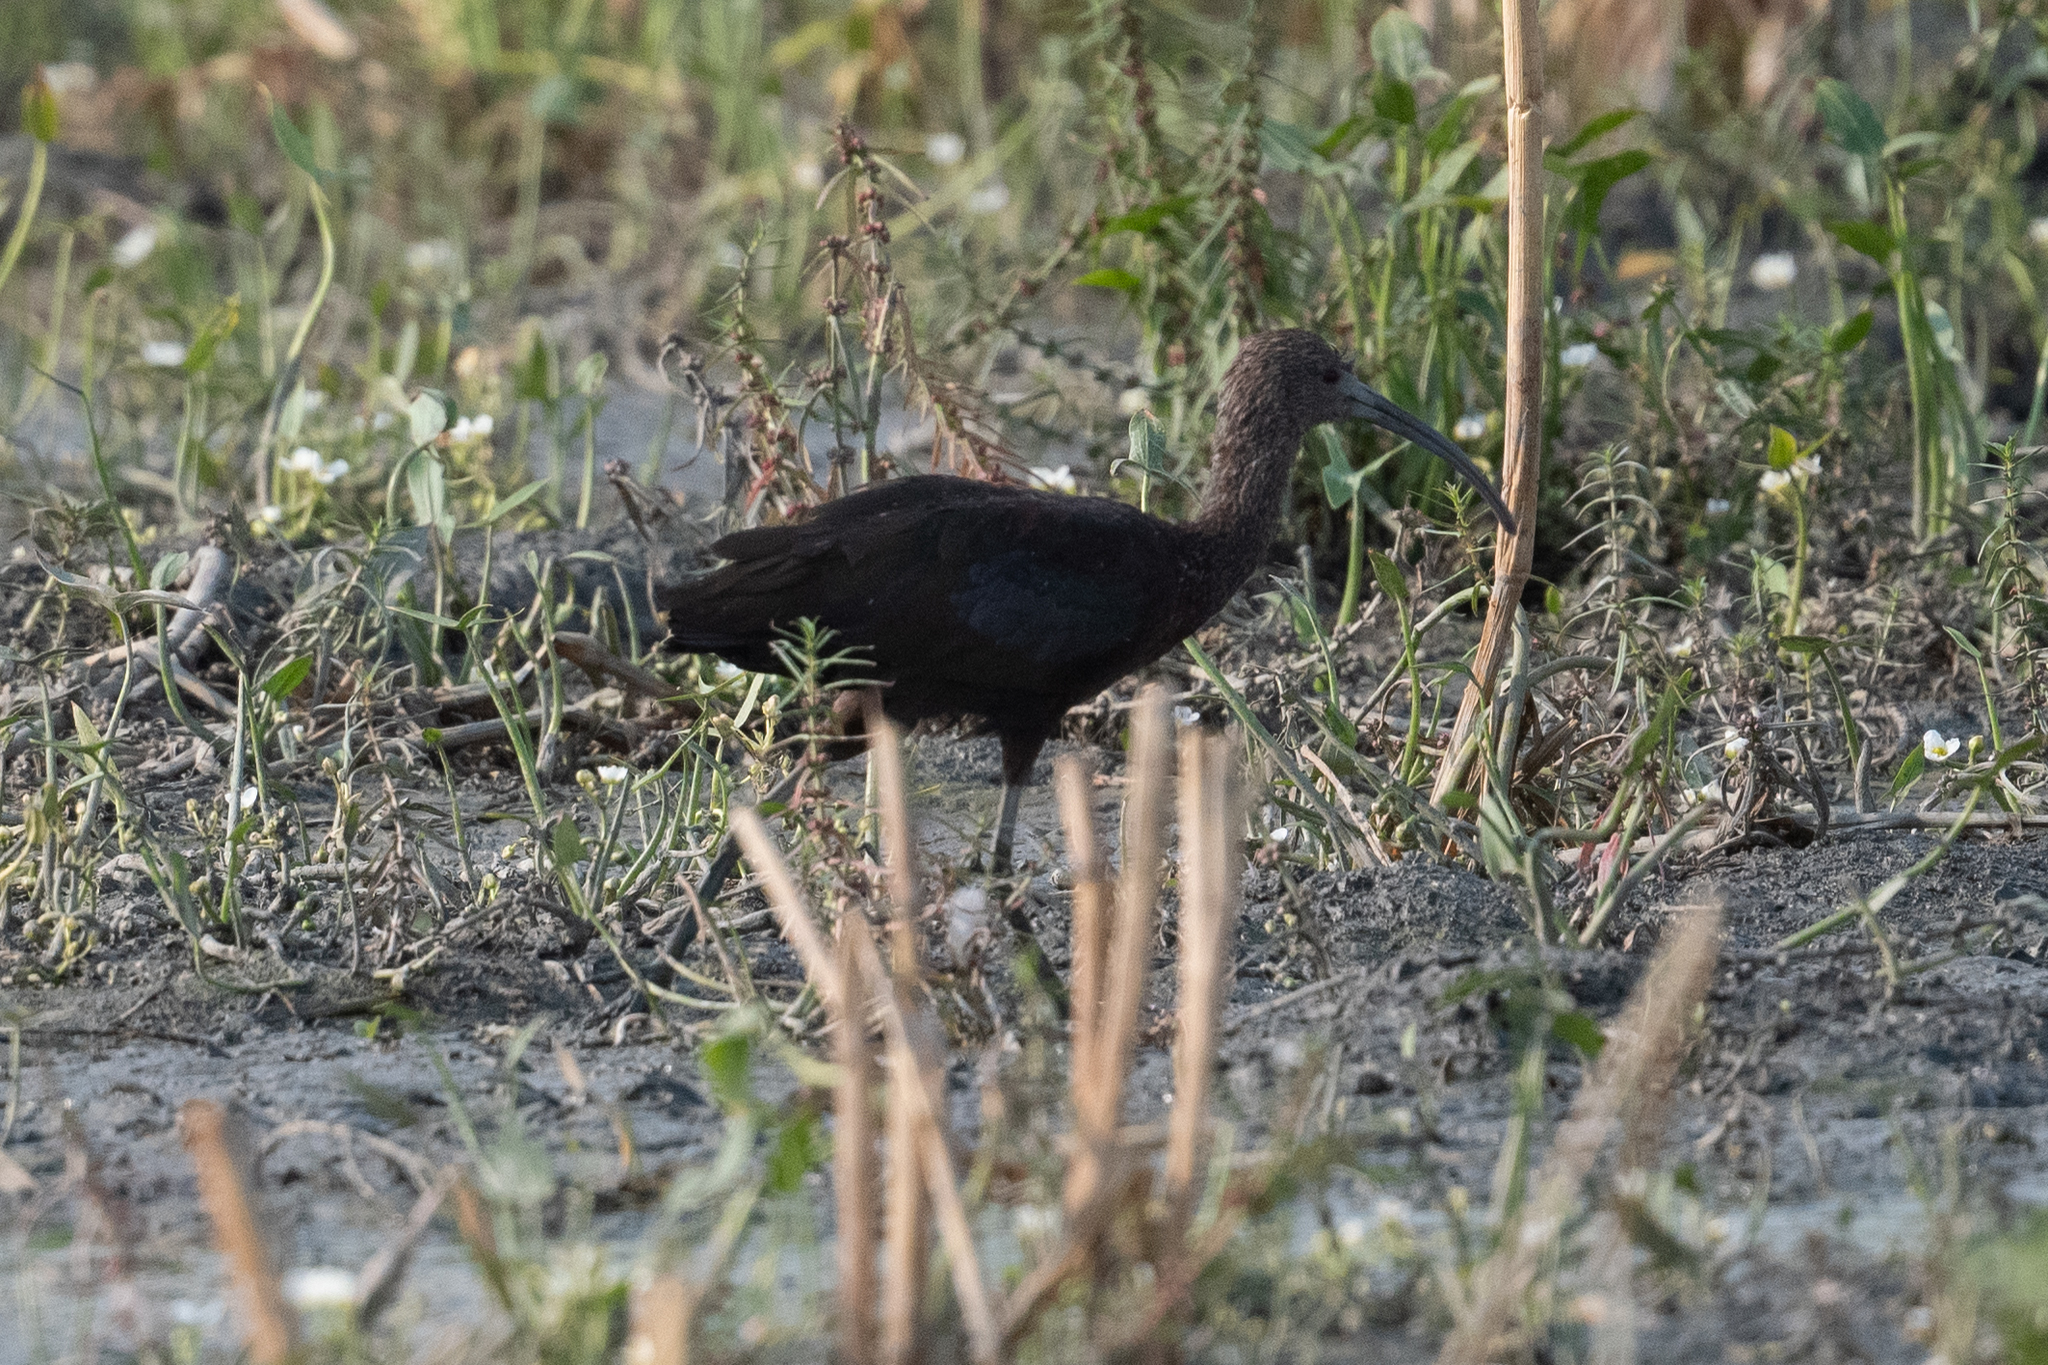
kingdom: Animalia
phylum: Chordata
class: Aves
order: Pelecaniformes
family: Threskiornithidae
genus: Plegadis
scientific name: Plegadis chihi
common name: White-faced ibis
